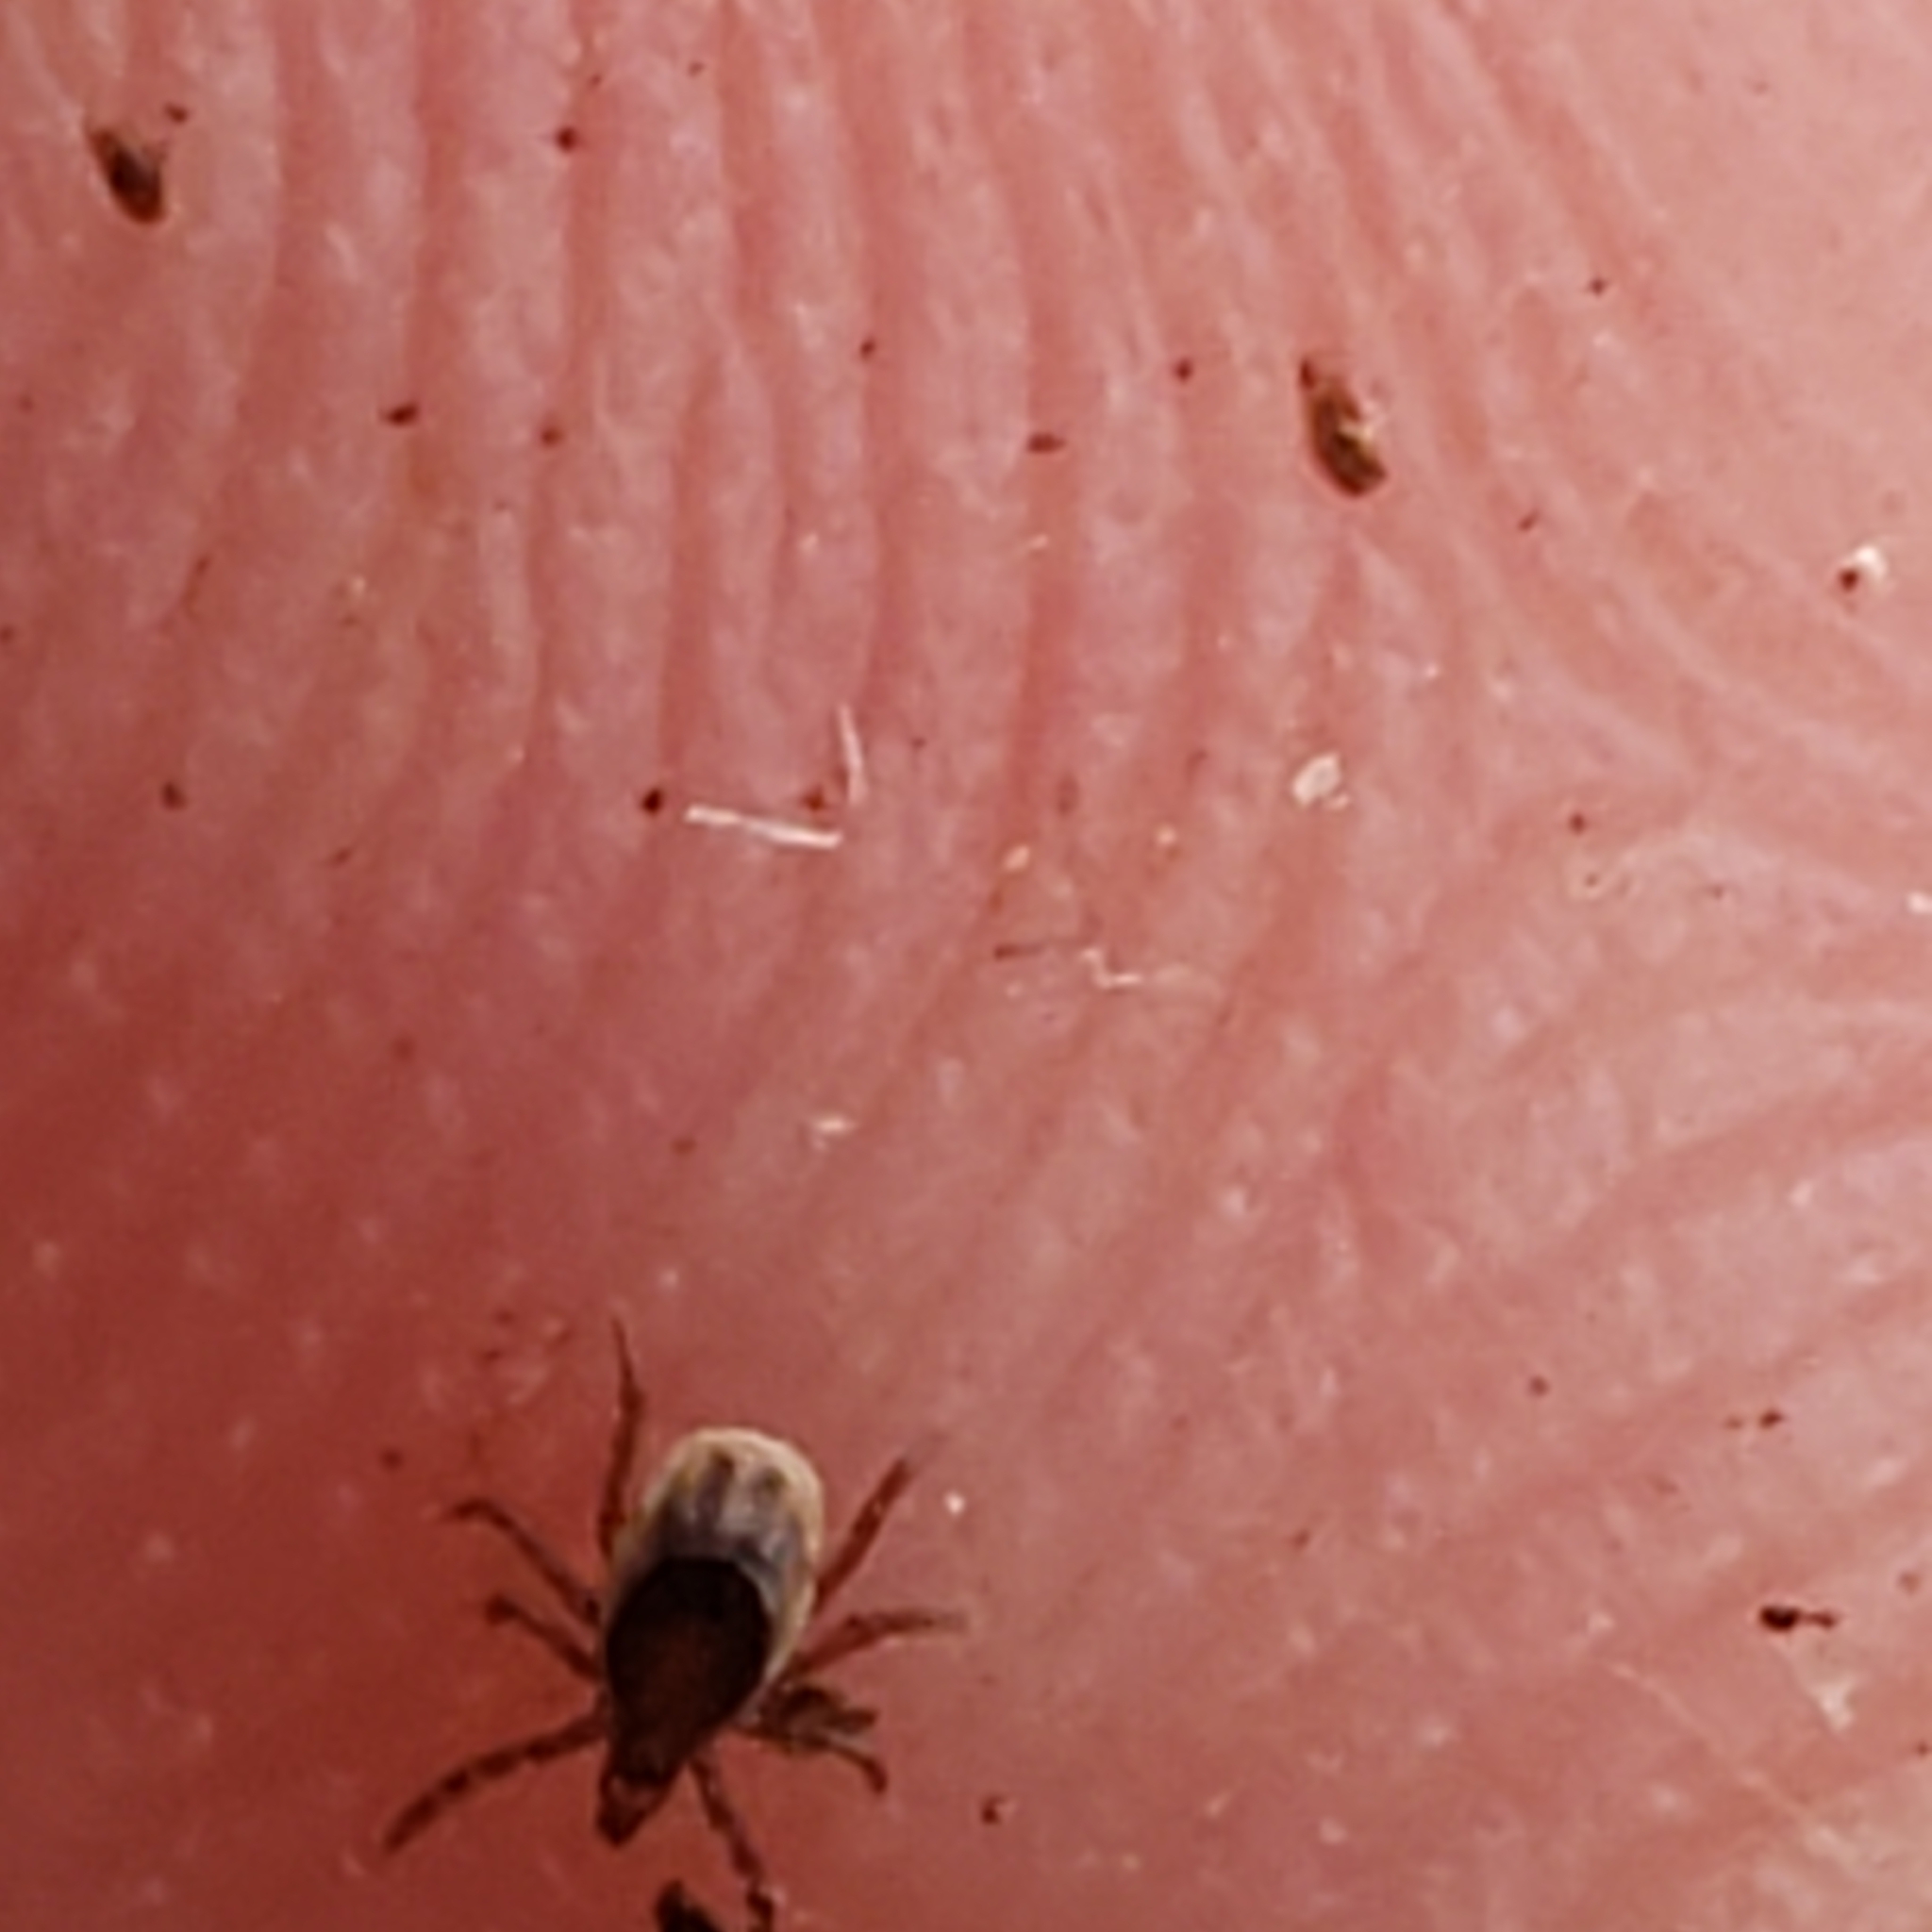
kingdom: Animalia
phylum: Arthropoda
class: Arachnida
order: Ixodida
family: Ixodidae
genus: Ixodes
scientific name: Ixodes scapularis
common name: Black legged tick
